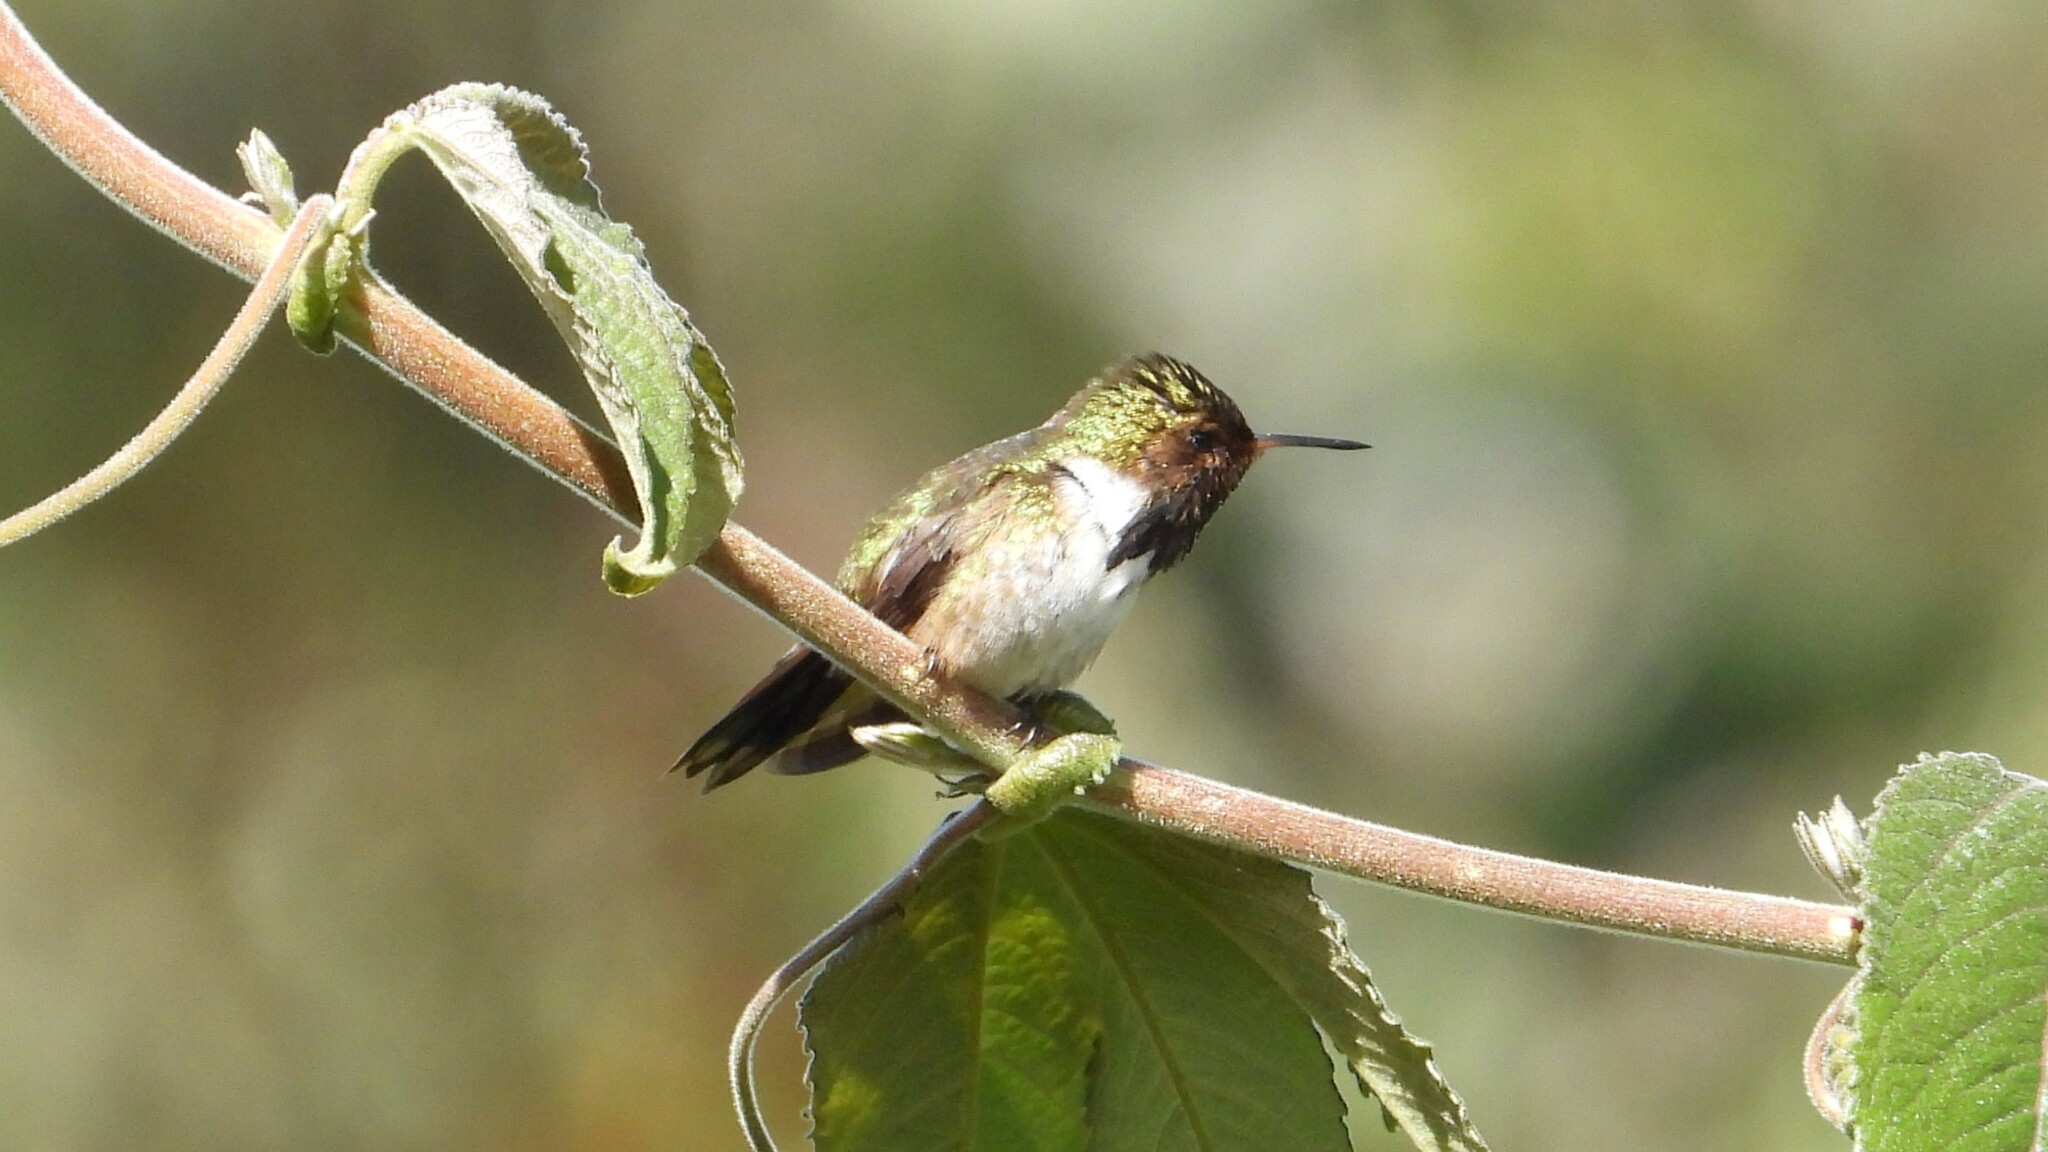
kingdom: Animalia
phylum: Chordata
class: Aves
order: Apodiformes
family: Trochilidae
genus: Selasphorus
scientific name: Selasphorus flammula
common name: Volcano hummingbird
